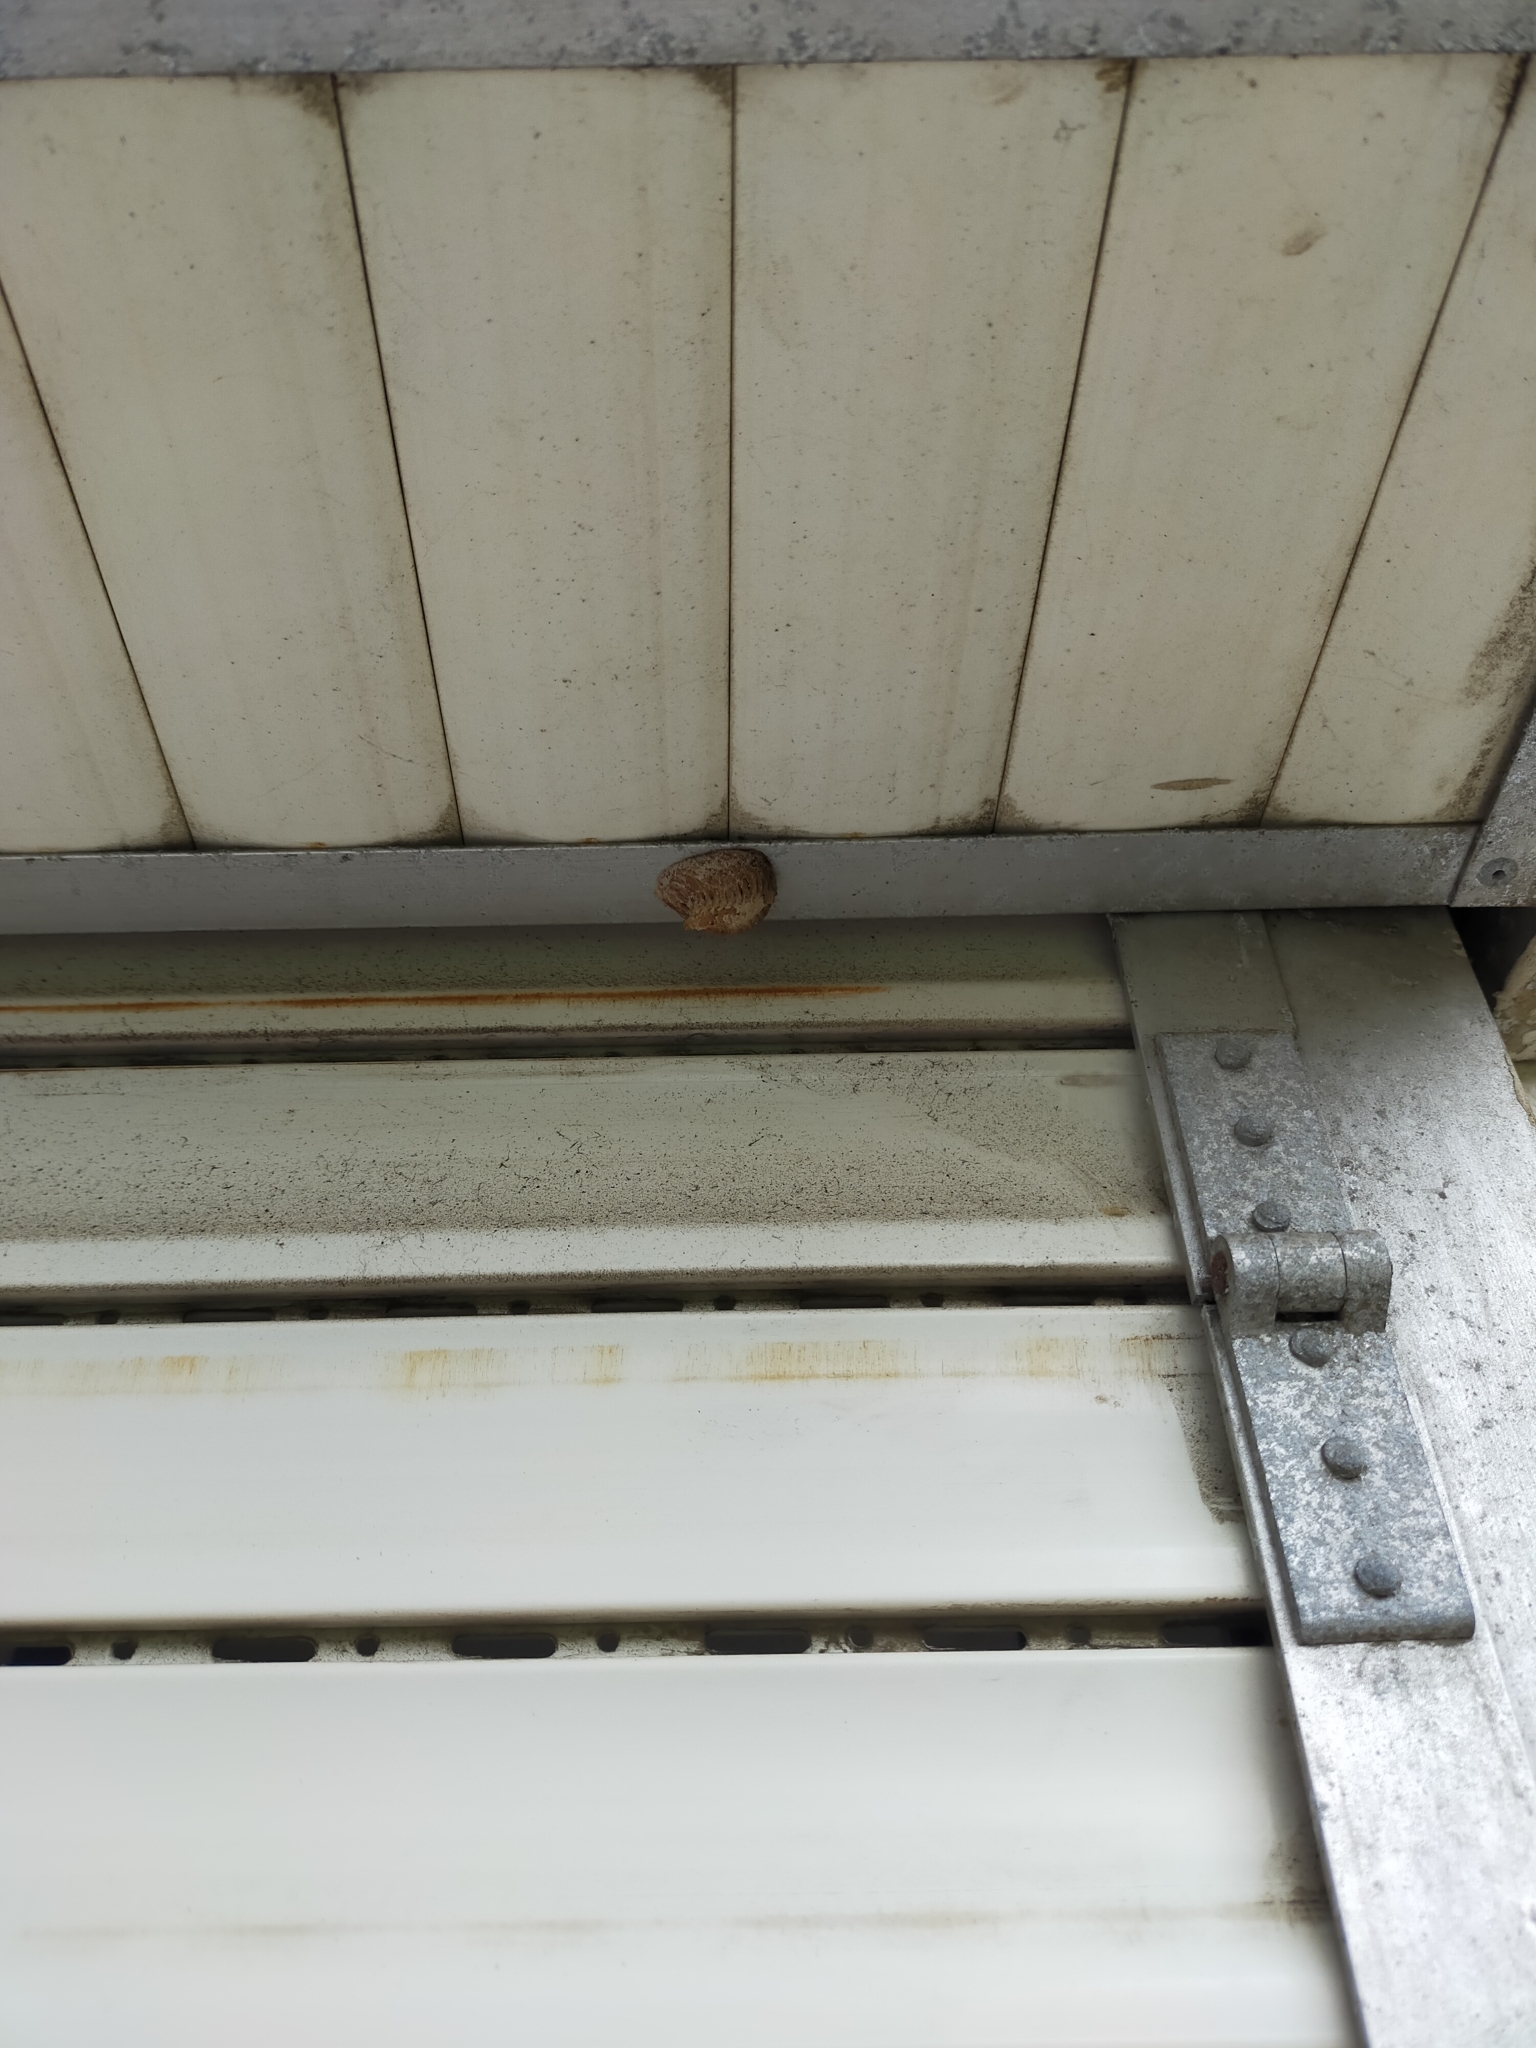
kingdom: Animalia
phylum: Arthropoda
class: Insecta
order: Mantodea
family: Mantidae
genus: Hierodula
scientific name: Hierodula transcaucasica
